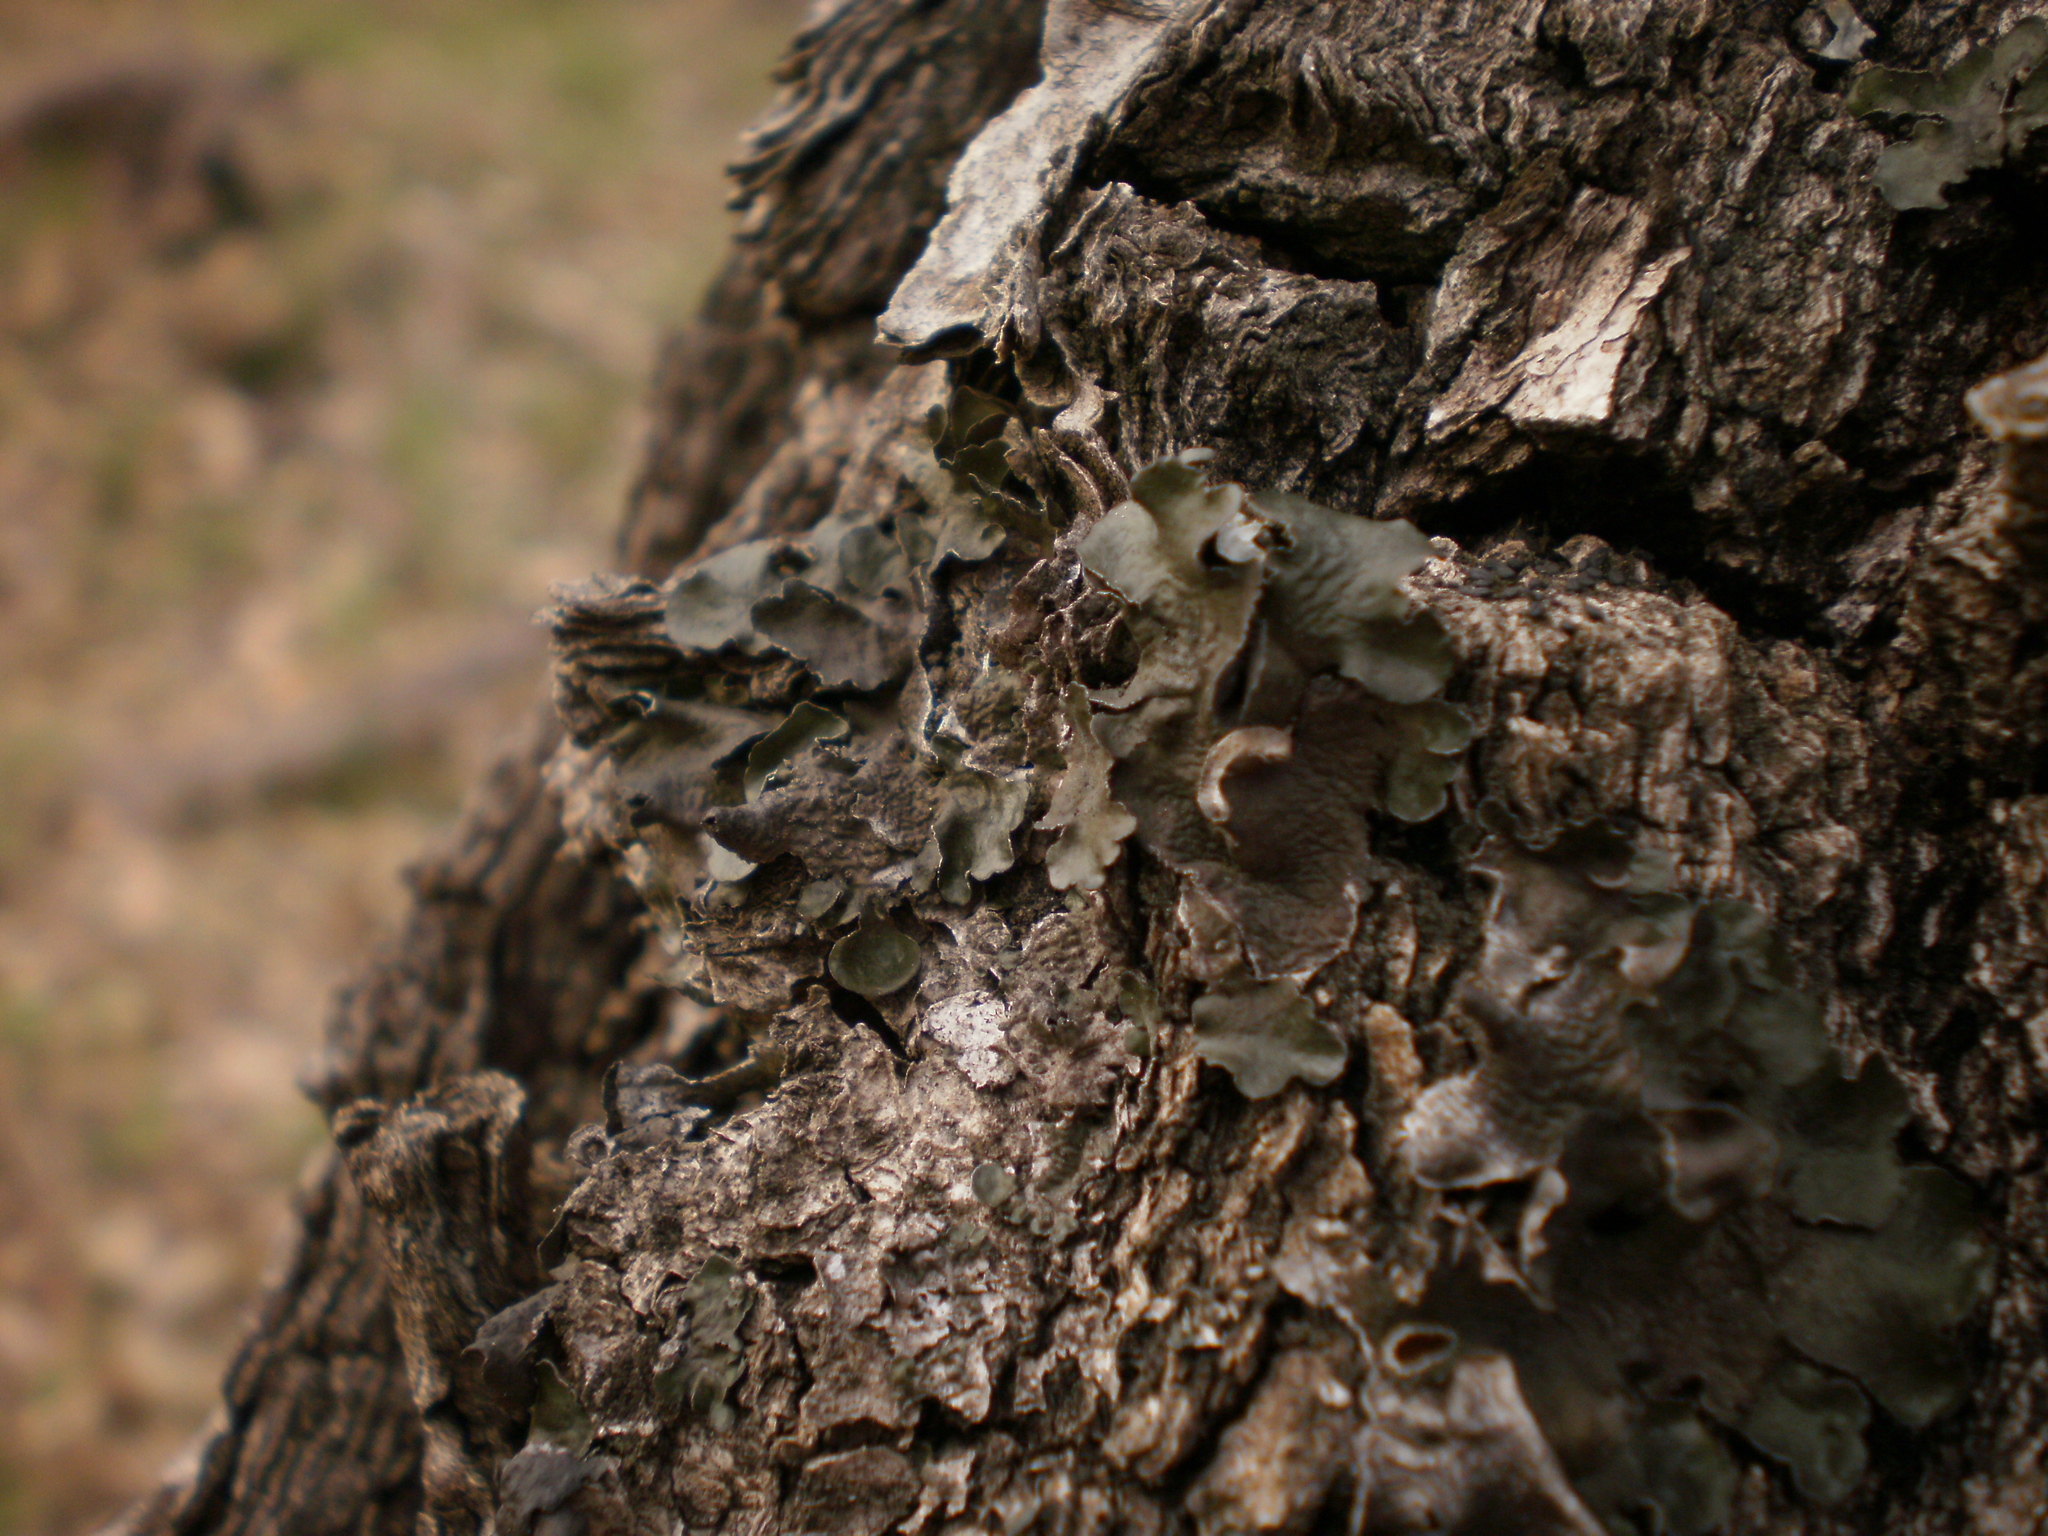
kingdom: Fungi
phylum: Ascomycota
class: Lecanoromycetes
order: Lecanorales
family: Parmeliaceae
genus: Pleurosticta
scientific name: Pleurosticta acetabulum
